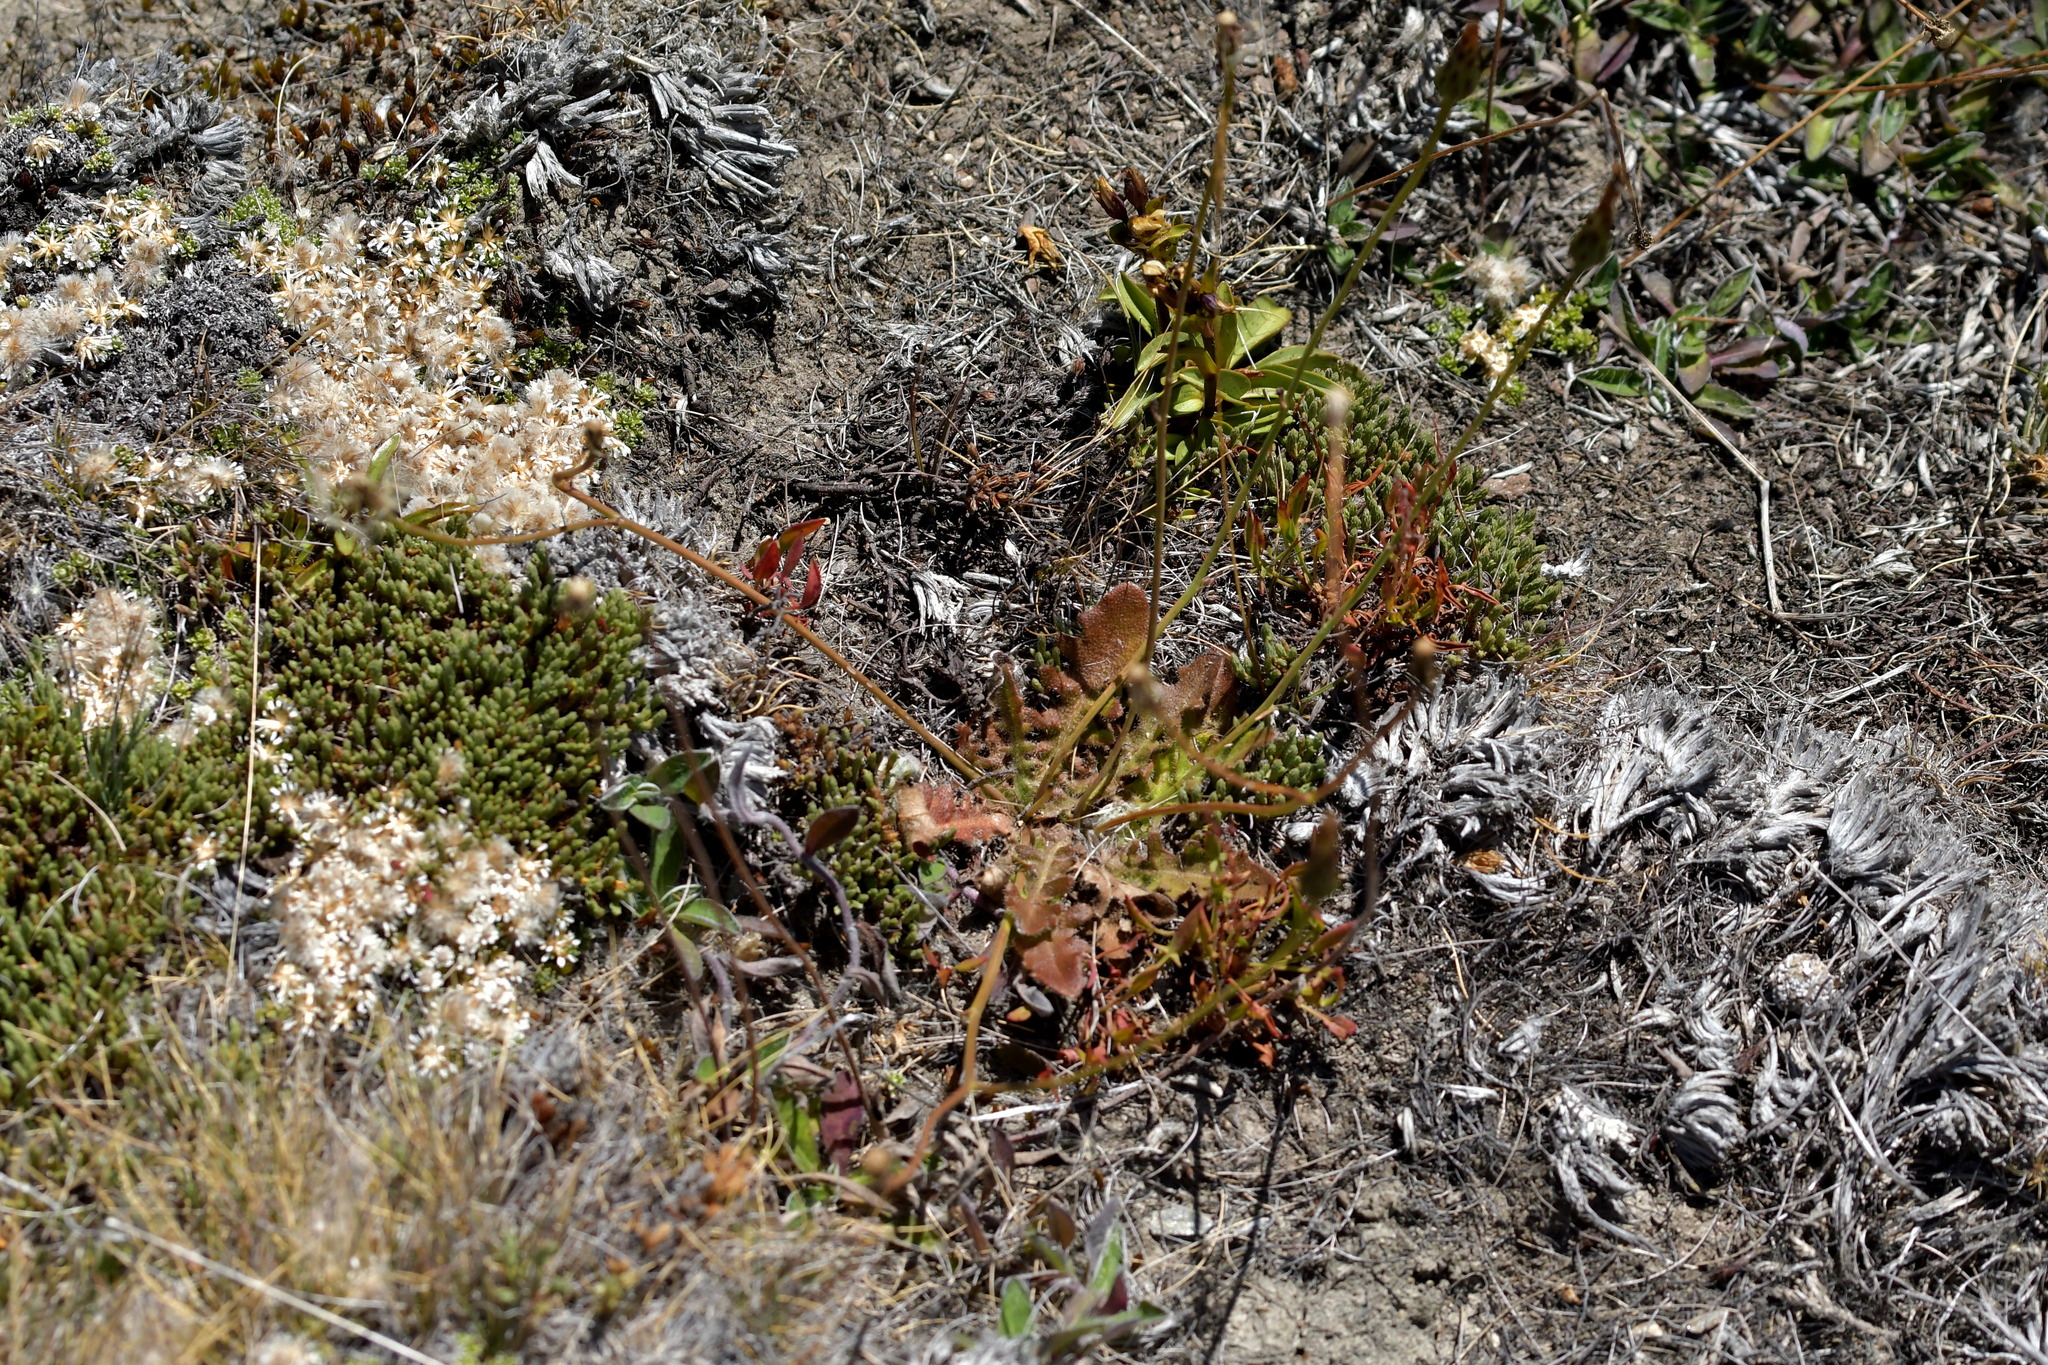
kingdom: Plantae
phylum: Tracheophyta
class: Magnoliopsida
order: Asterales
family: Asteraceae
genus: Hypochaeris
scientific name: Hypochaeris radicata
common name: Flatweed
